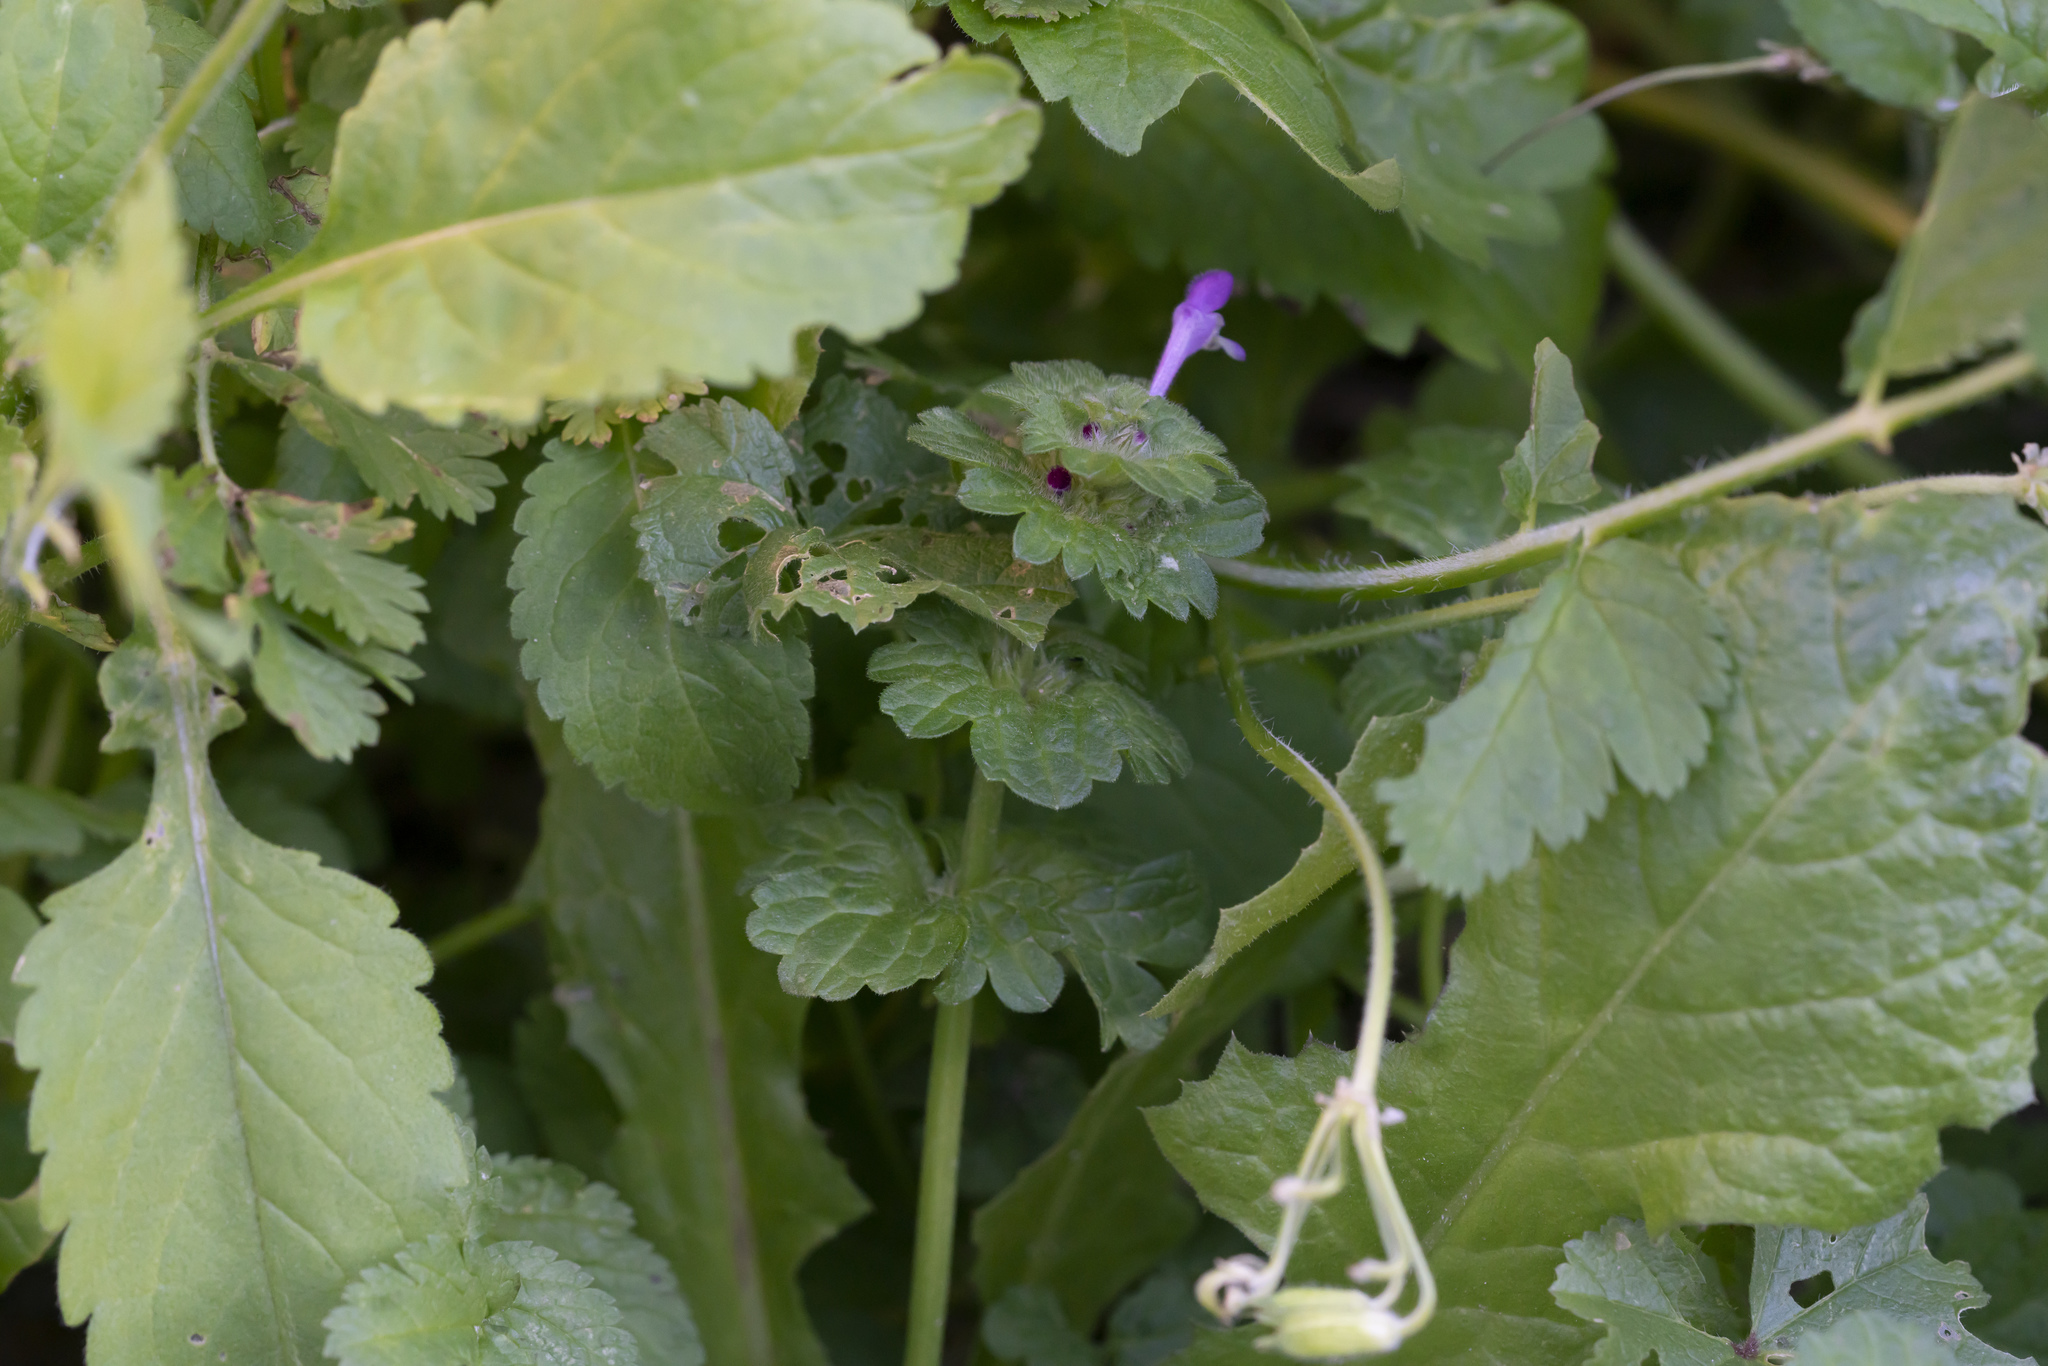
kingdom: Plantae
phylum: Tracheophyta
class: Magnoliopsida
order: Lamiales
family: Lamiaceae
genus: Lamium
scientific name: Lamium amplexicaule
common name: Henbit dead-nettle
